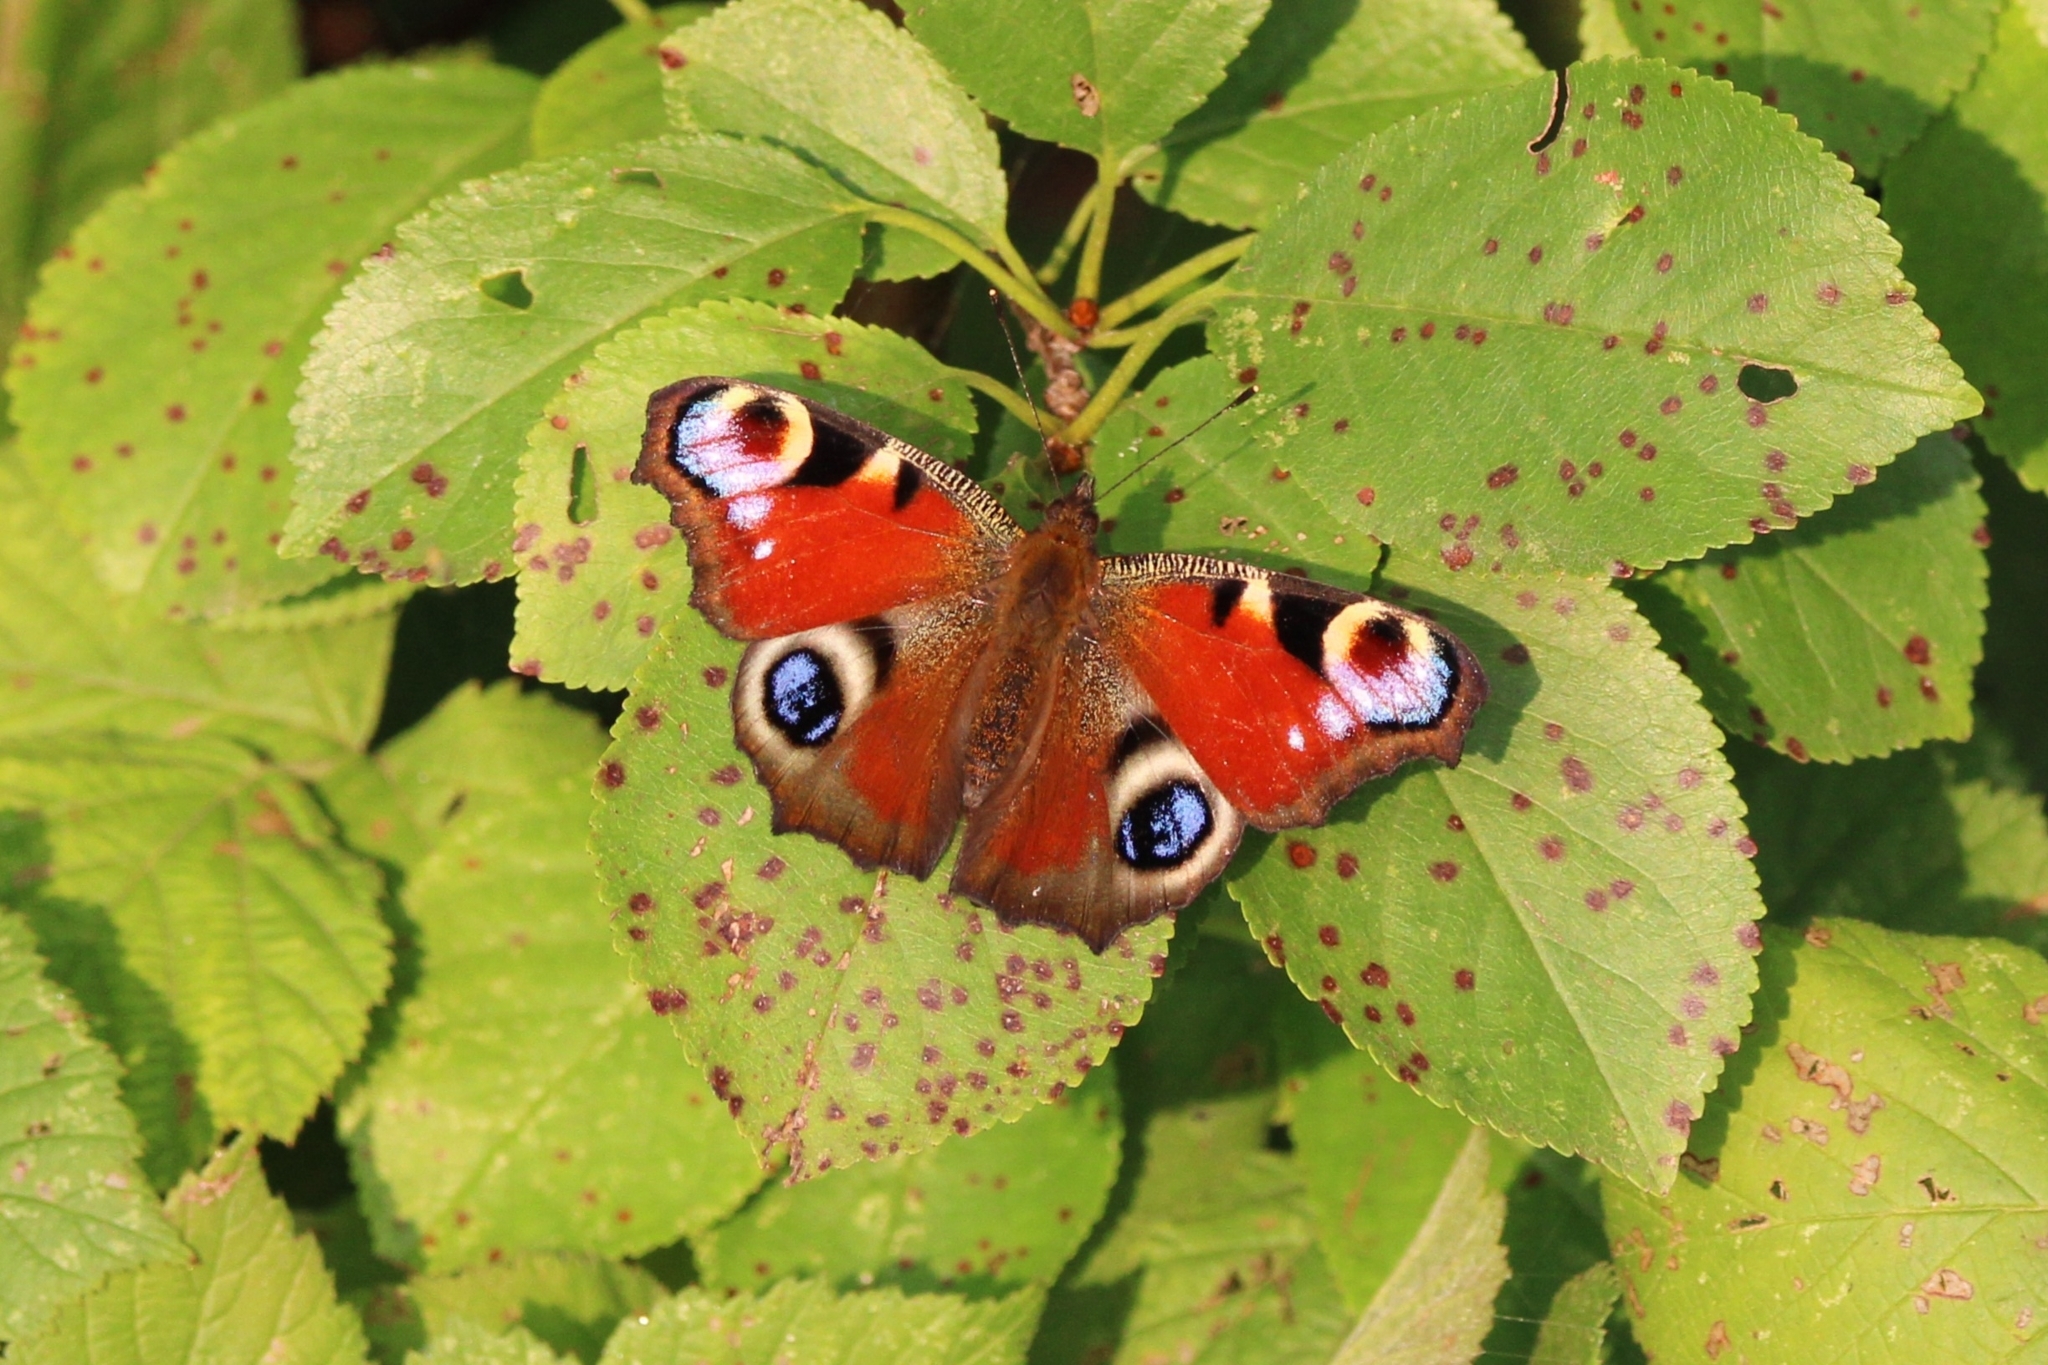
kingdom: Animalia
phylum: Arthropoda
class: Insecta
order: Lepidoptera
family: Nymphalidae
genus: Aglais
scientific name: Aglais io
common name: Peacock
